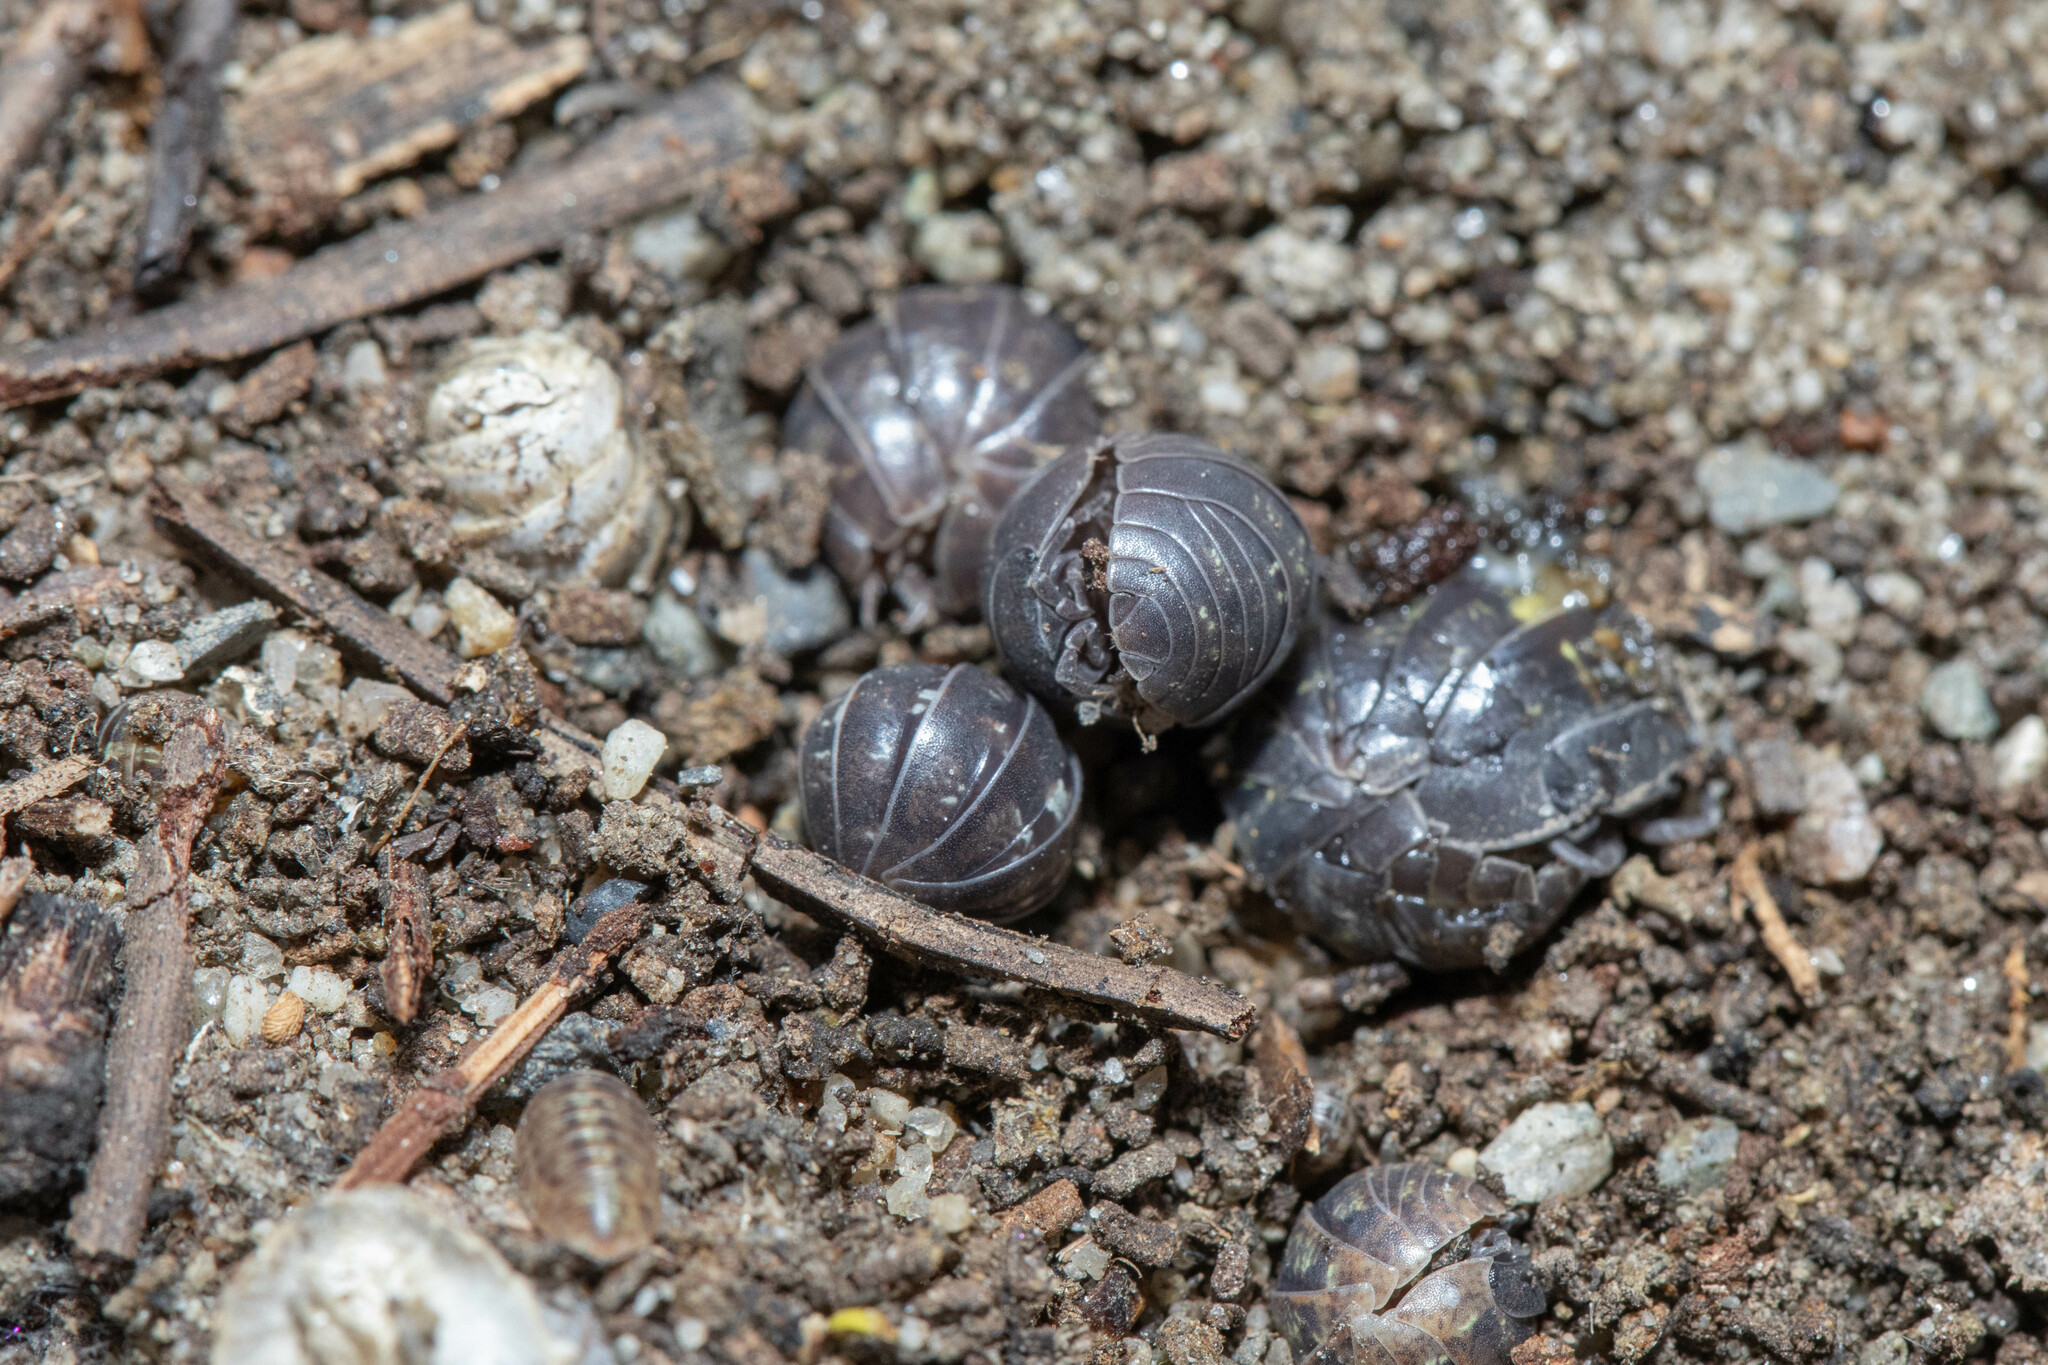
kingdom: Animalia
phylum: Arthropoda
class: Malacostraca
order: Isopoda
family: Armadillidiidae
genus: Armadillidium
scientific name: Armadillidium vulgare
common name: Common pill woodlouse
